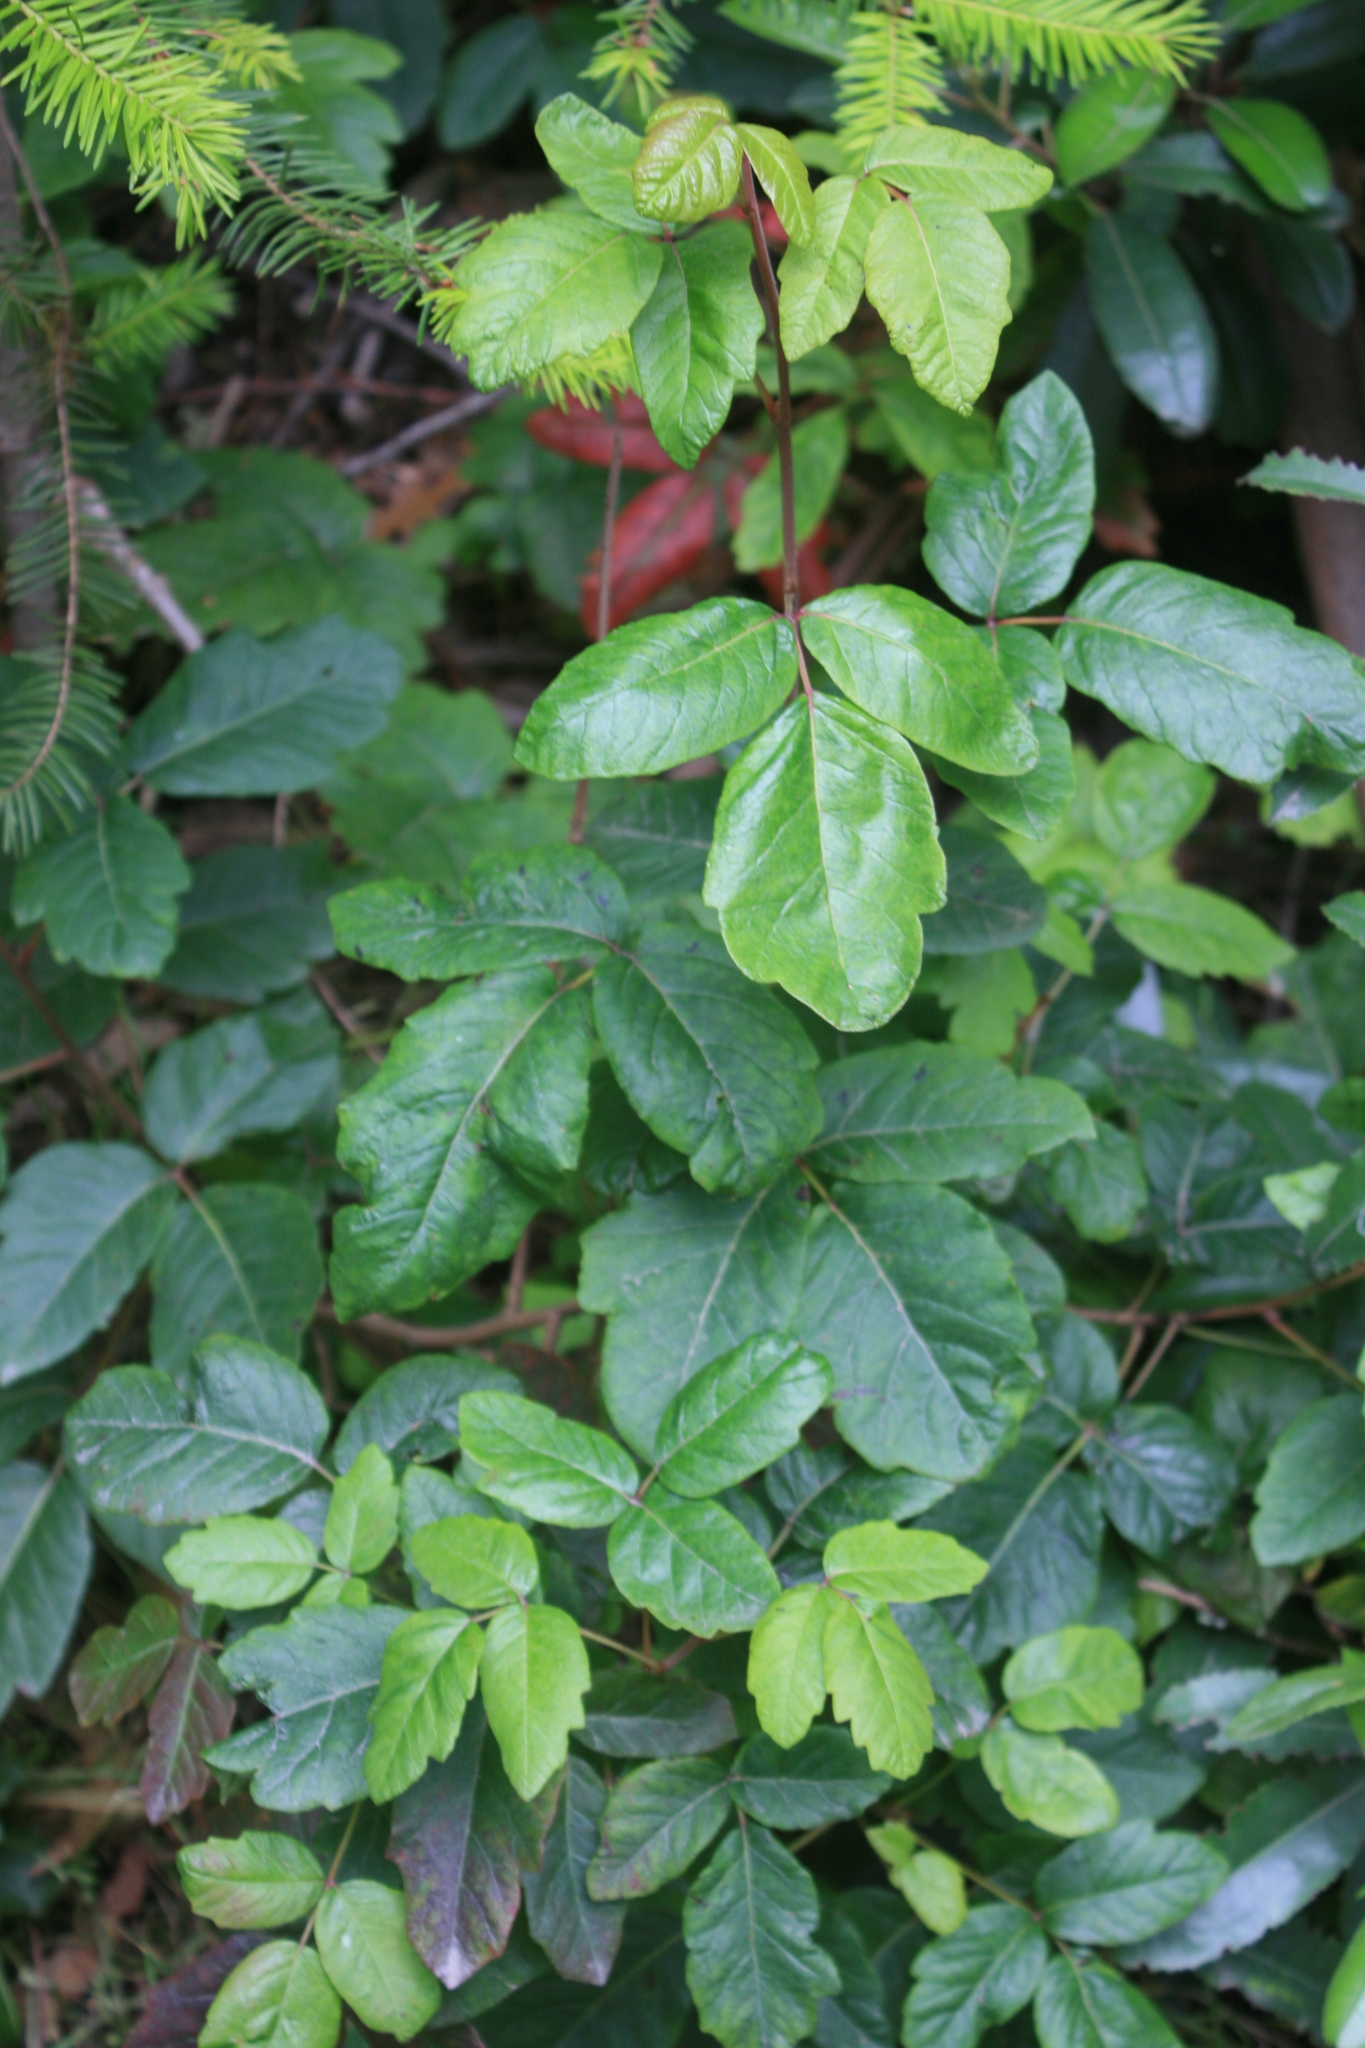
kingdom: Plantae
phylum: Tracheophyta
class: Magnoliopsida
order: Sapindales
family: Anacardiaceae
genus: Toxicodendron
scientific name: Toxicodendron diversilobum
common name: Pacific poison-oak
